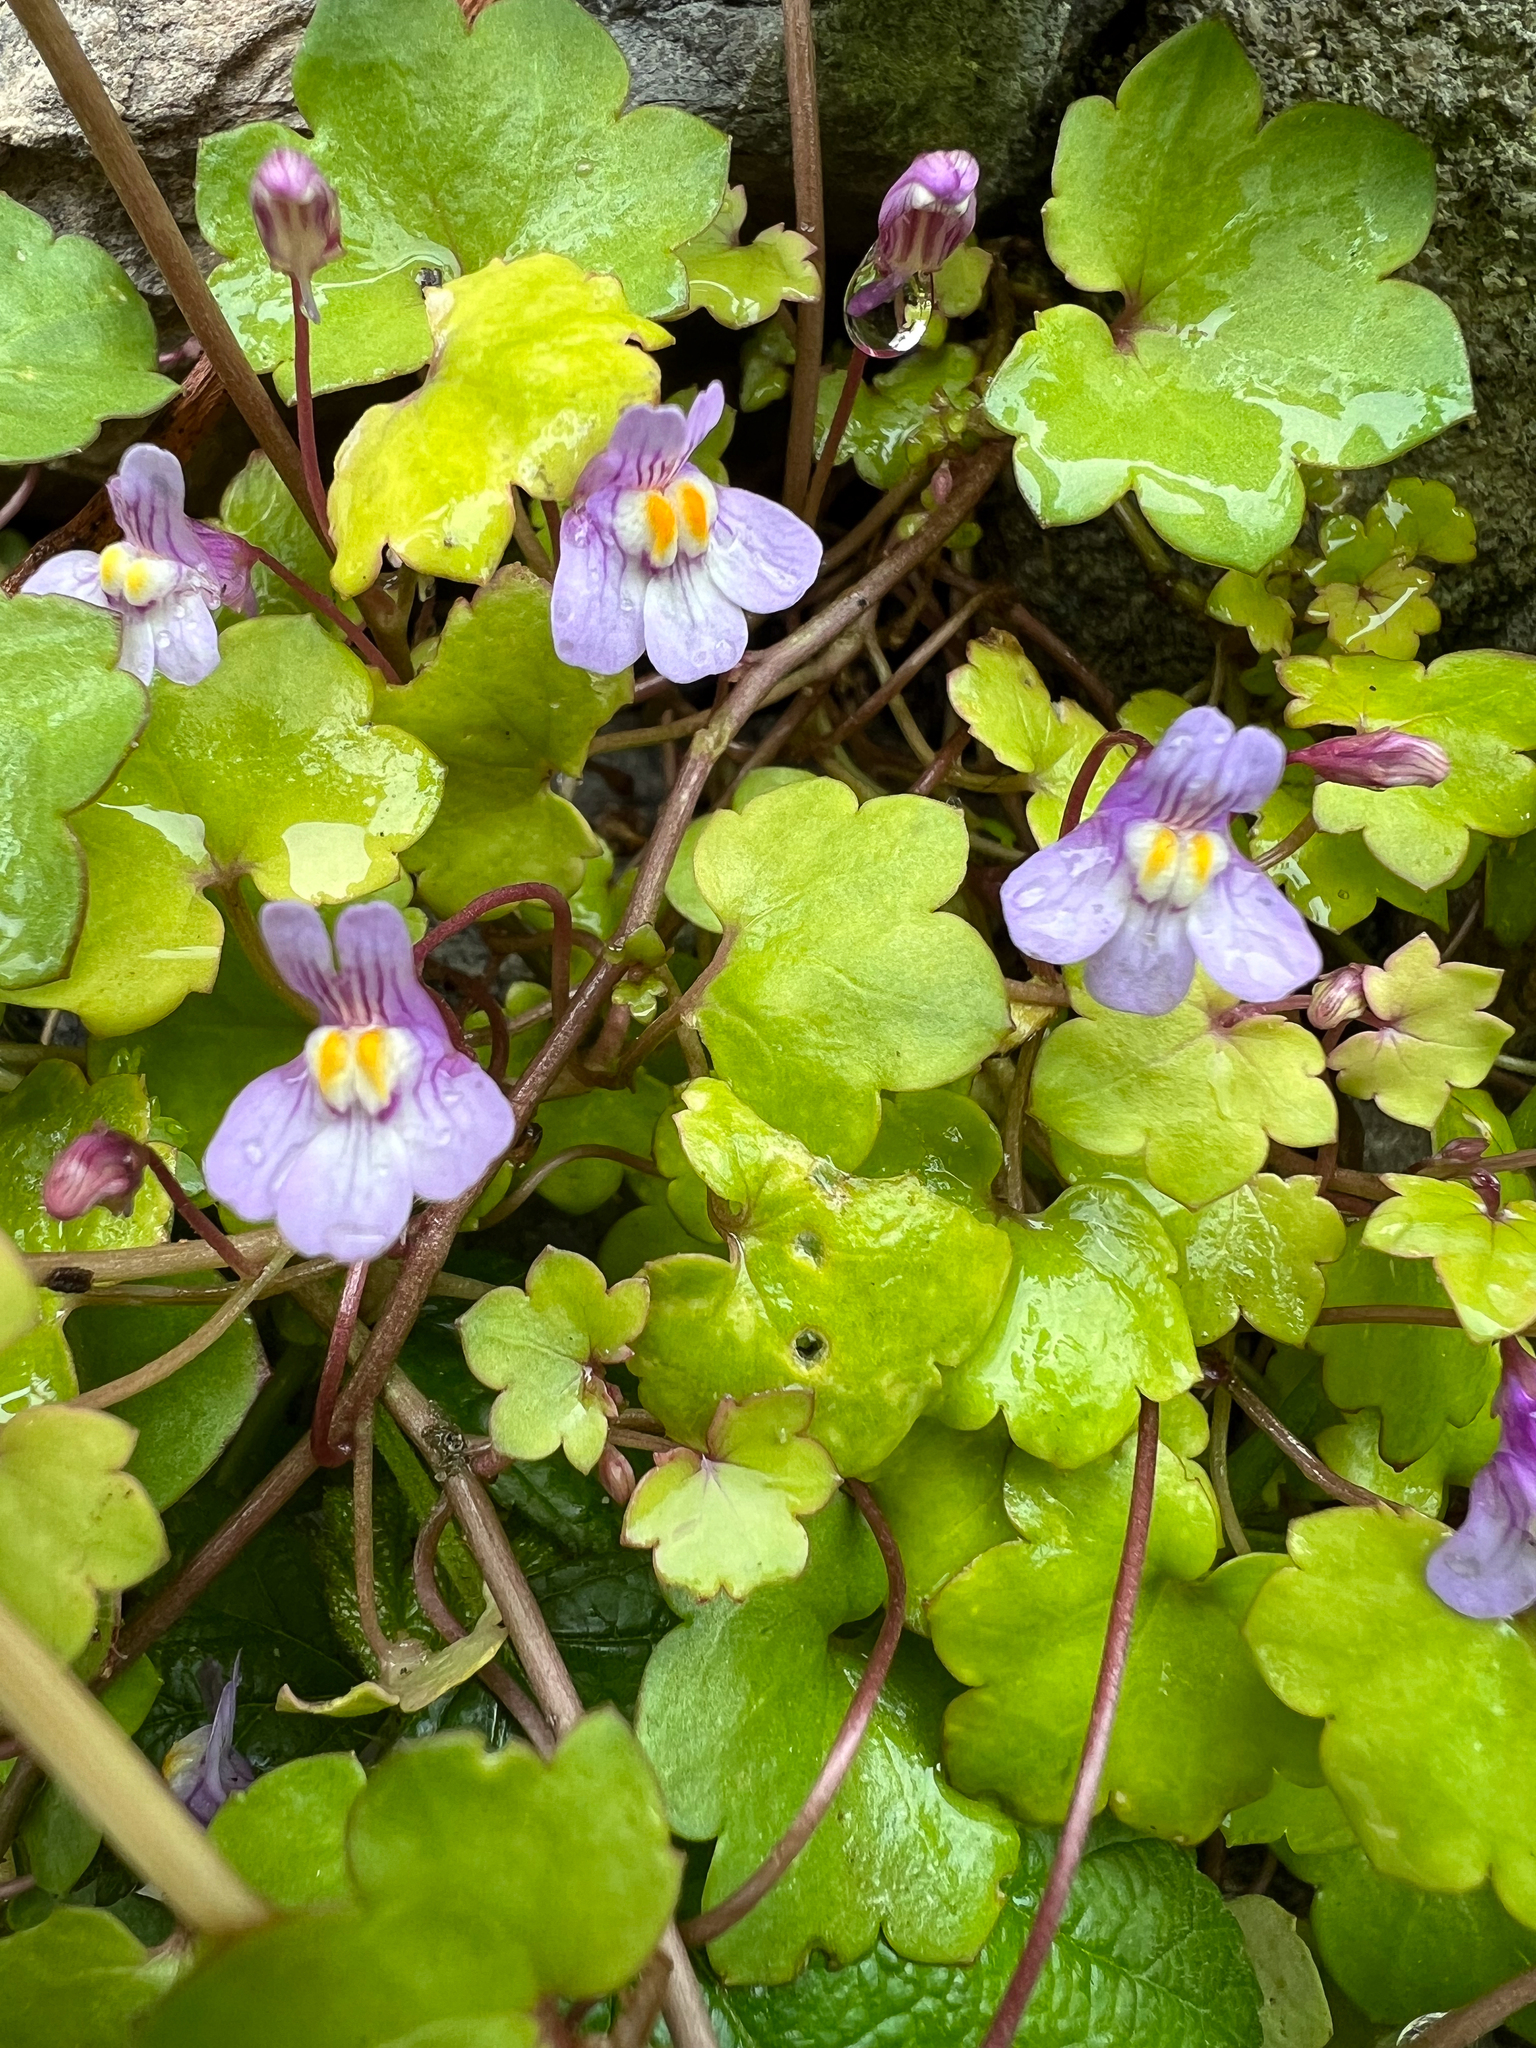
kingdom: Plantae
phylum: Tracheophyta
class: Magnoliopsida
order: Lamiales
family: Plantaginaceae
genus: Cymbalaria
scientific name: Cymbalaria muralis
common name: Ivy-leaved toadflax
